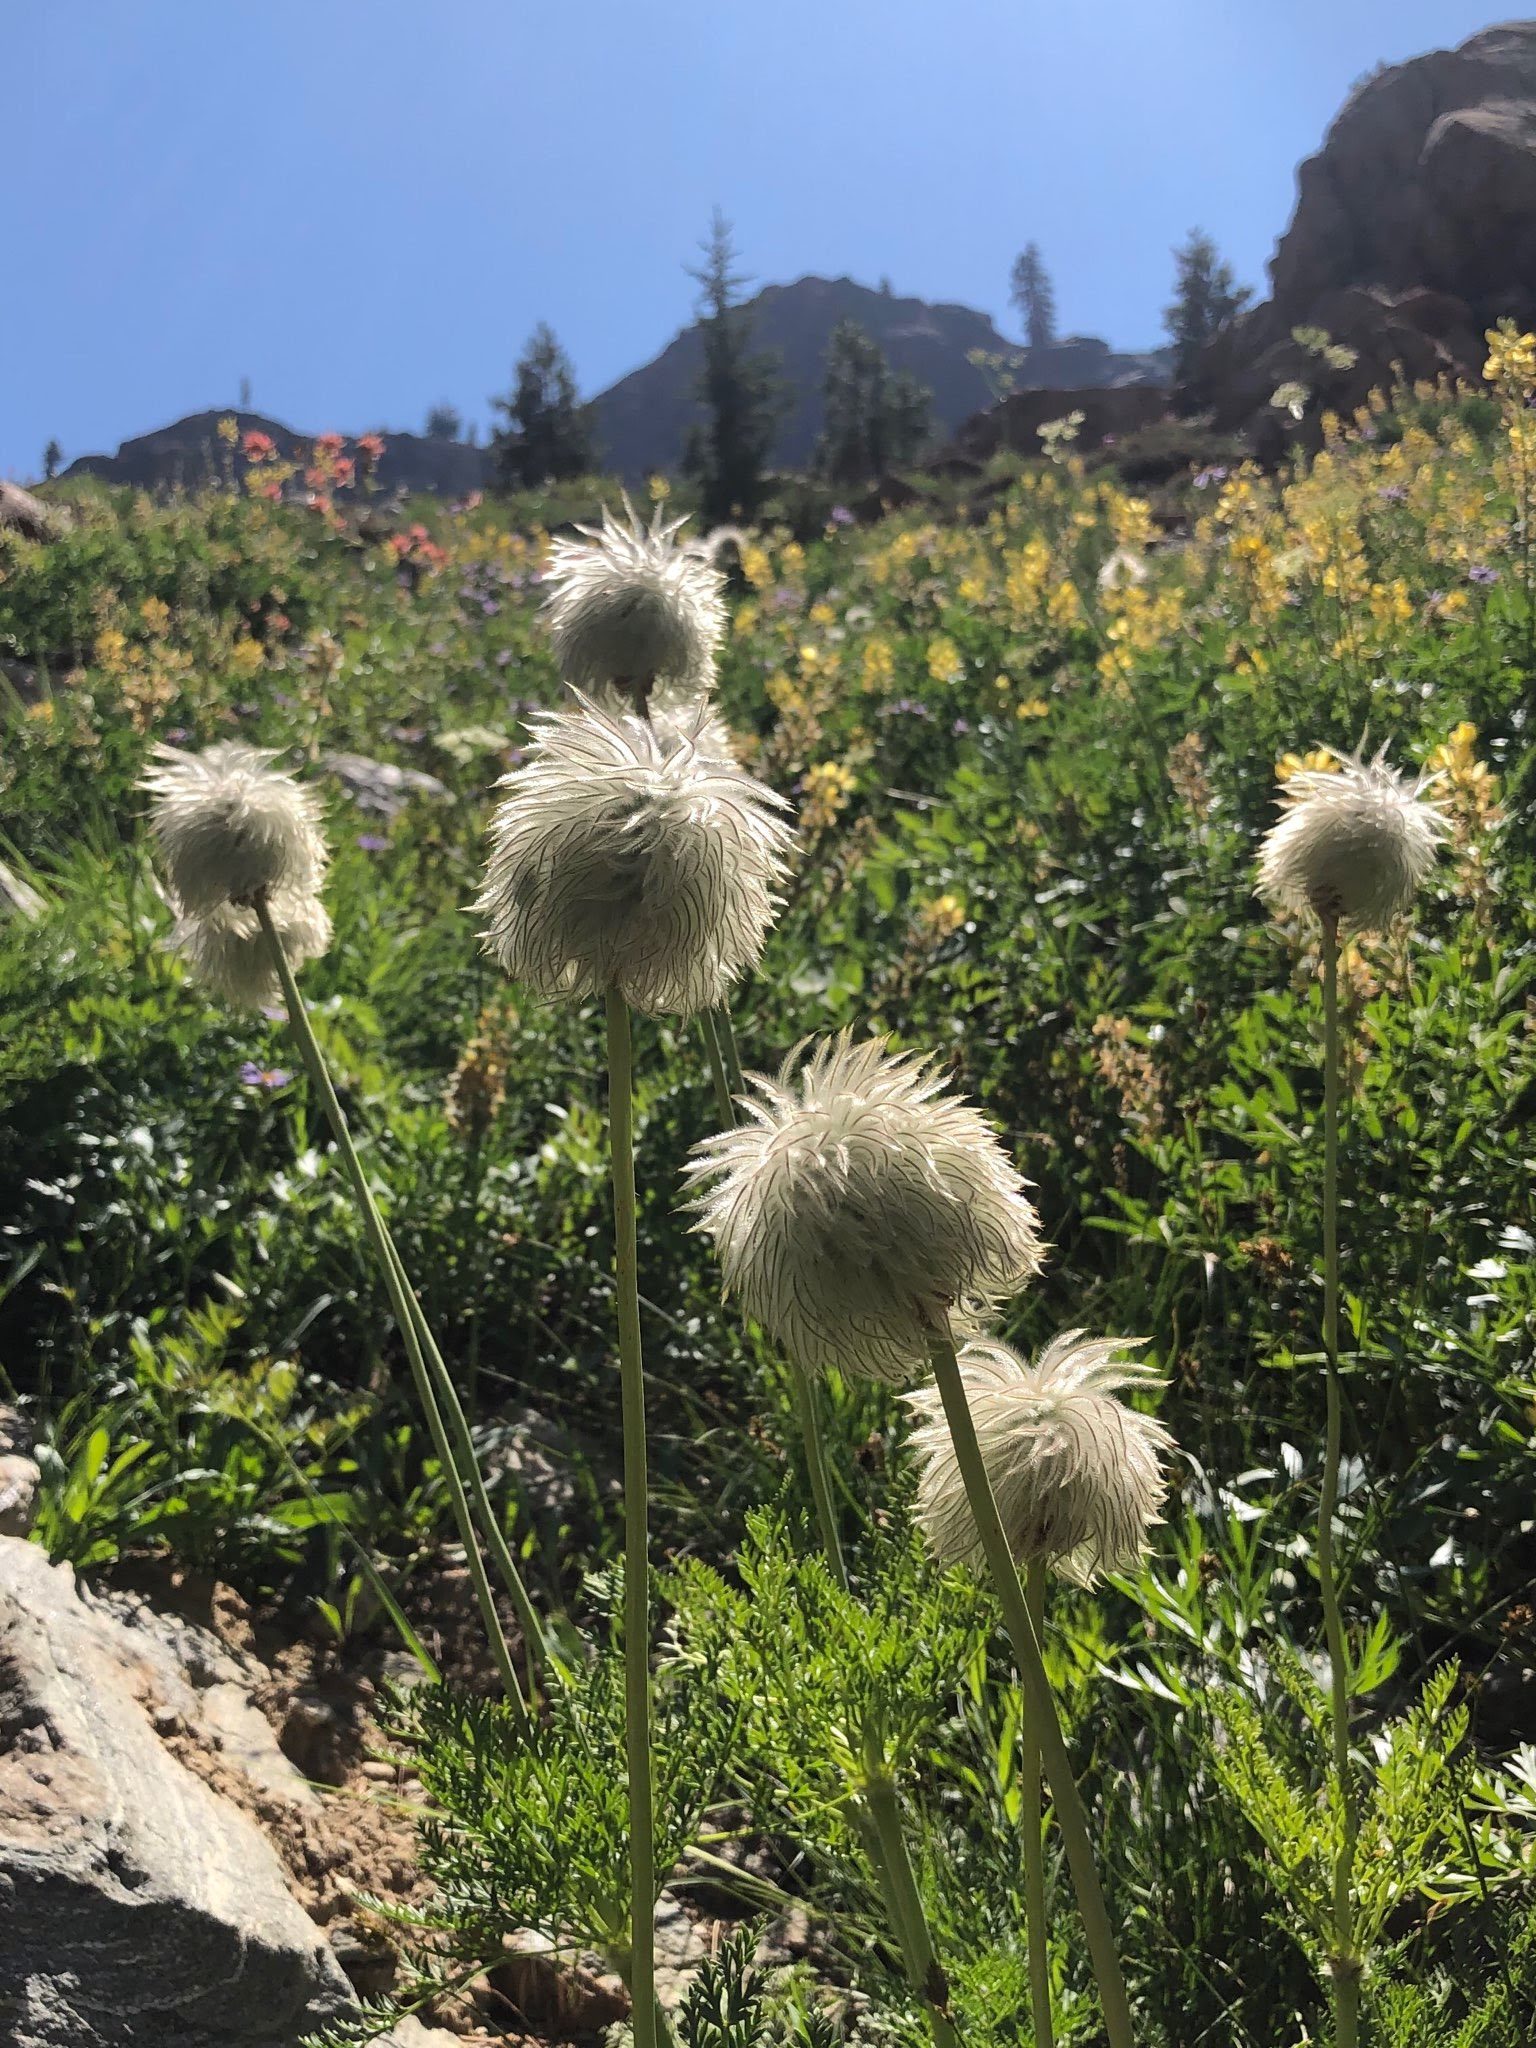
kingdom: Plantae
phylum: Tracheophyta
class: Magnoliopsida
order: Ranunculales
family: Ranunculaceae
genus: Pulsatilla
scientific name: Pulsatilla occidentalis
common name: Mountain pasqueflower
